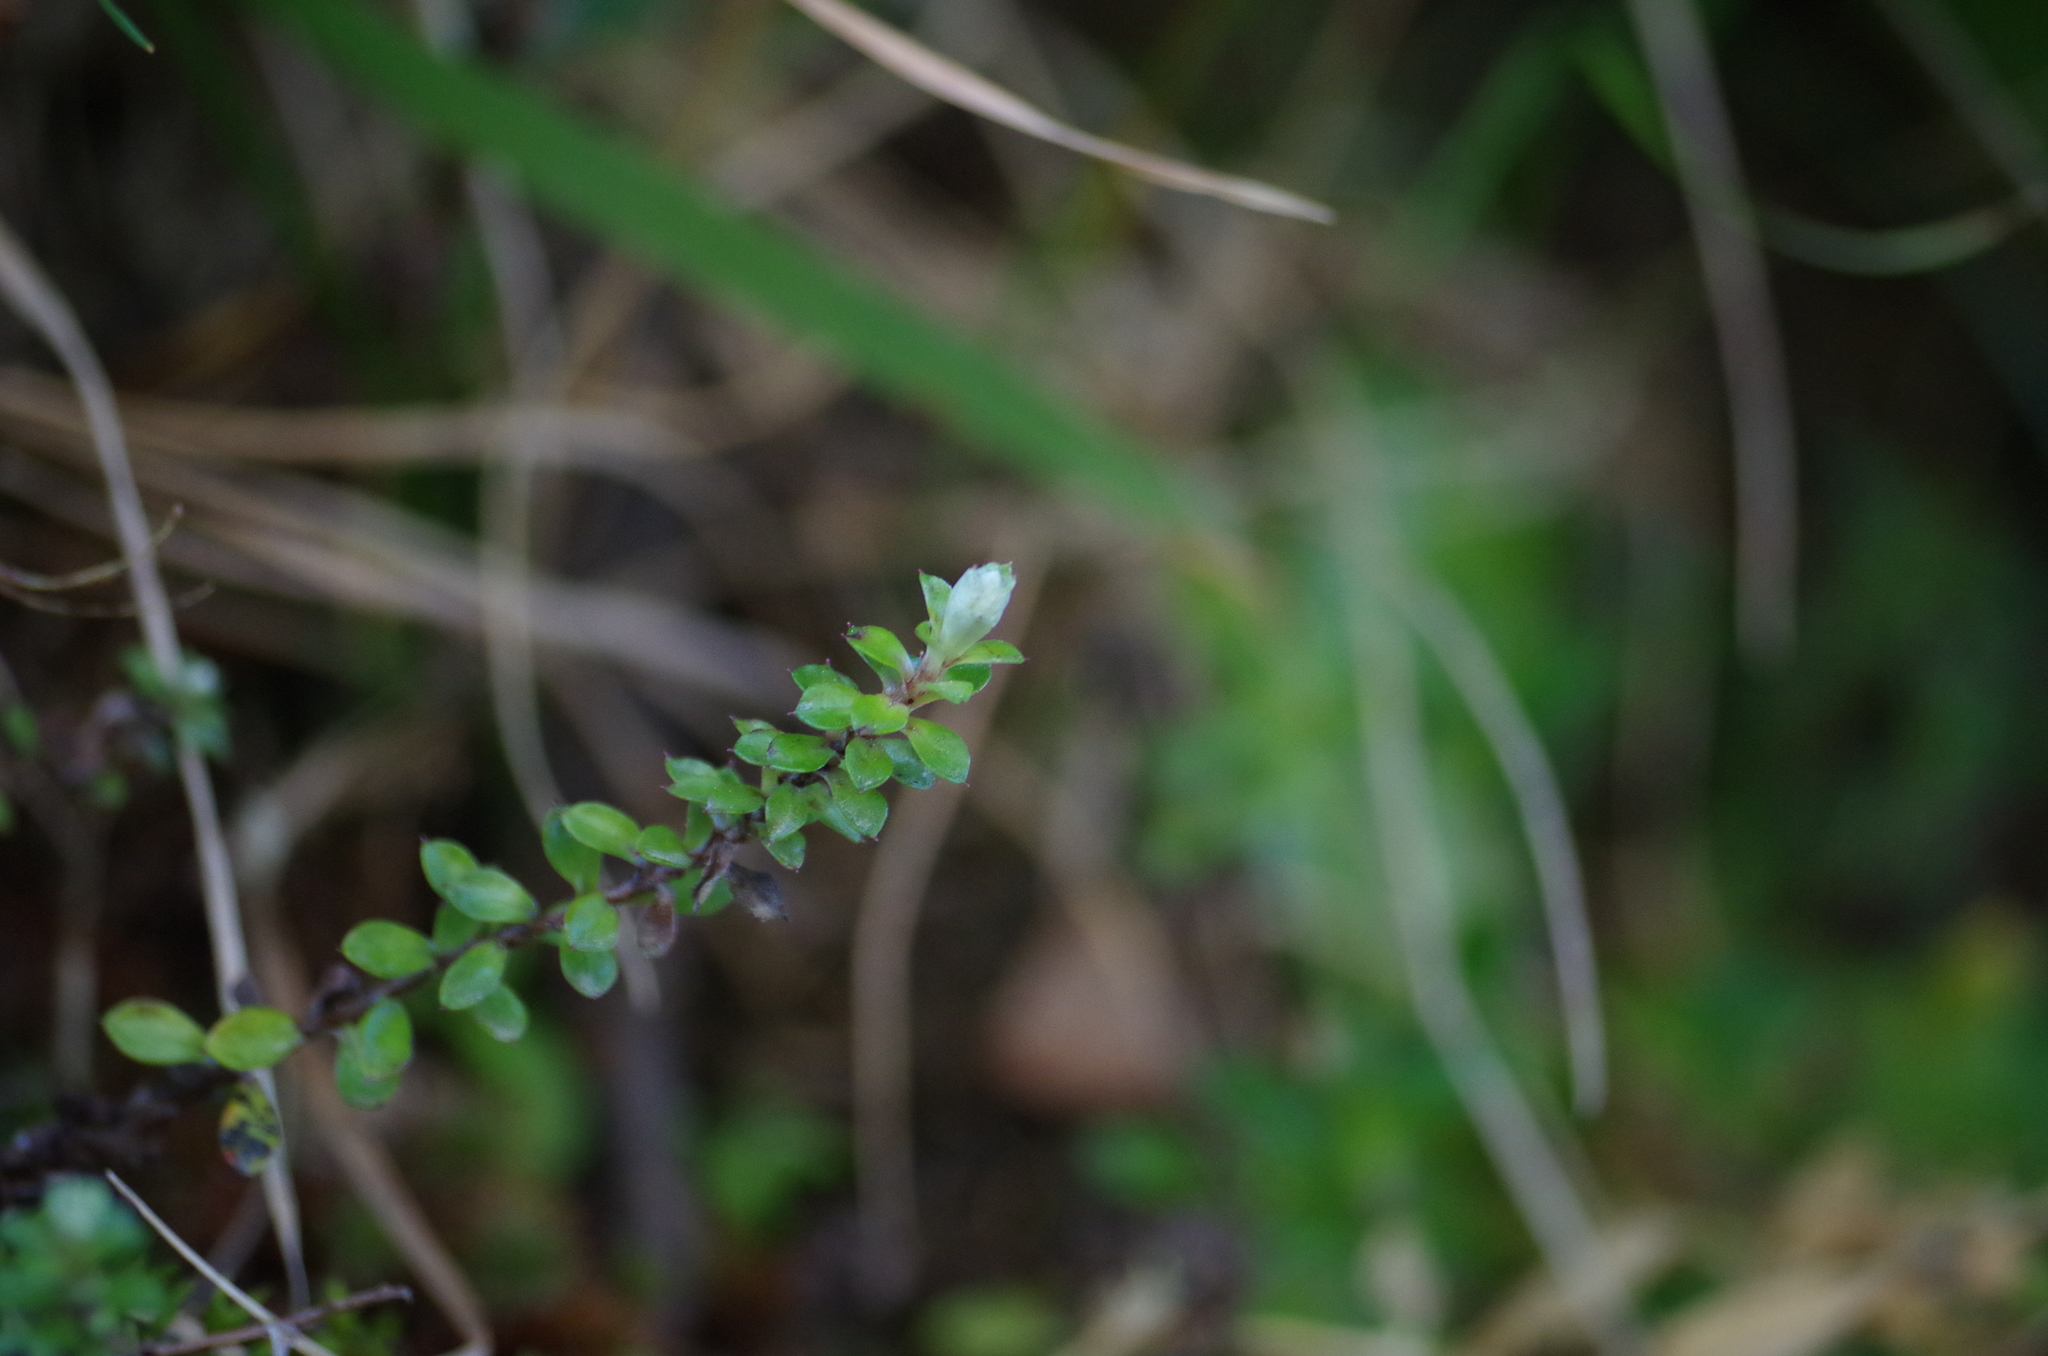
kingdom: Plantae
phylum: Tracheophyta
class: Magnoliopsida
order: Asterales
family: Asteraceae
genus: Anaphalioides
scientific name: Anaphalioides bellidioides
